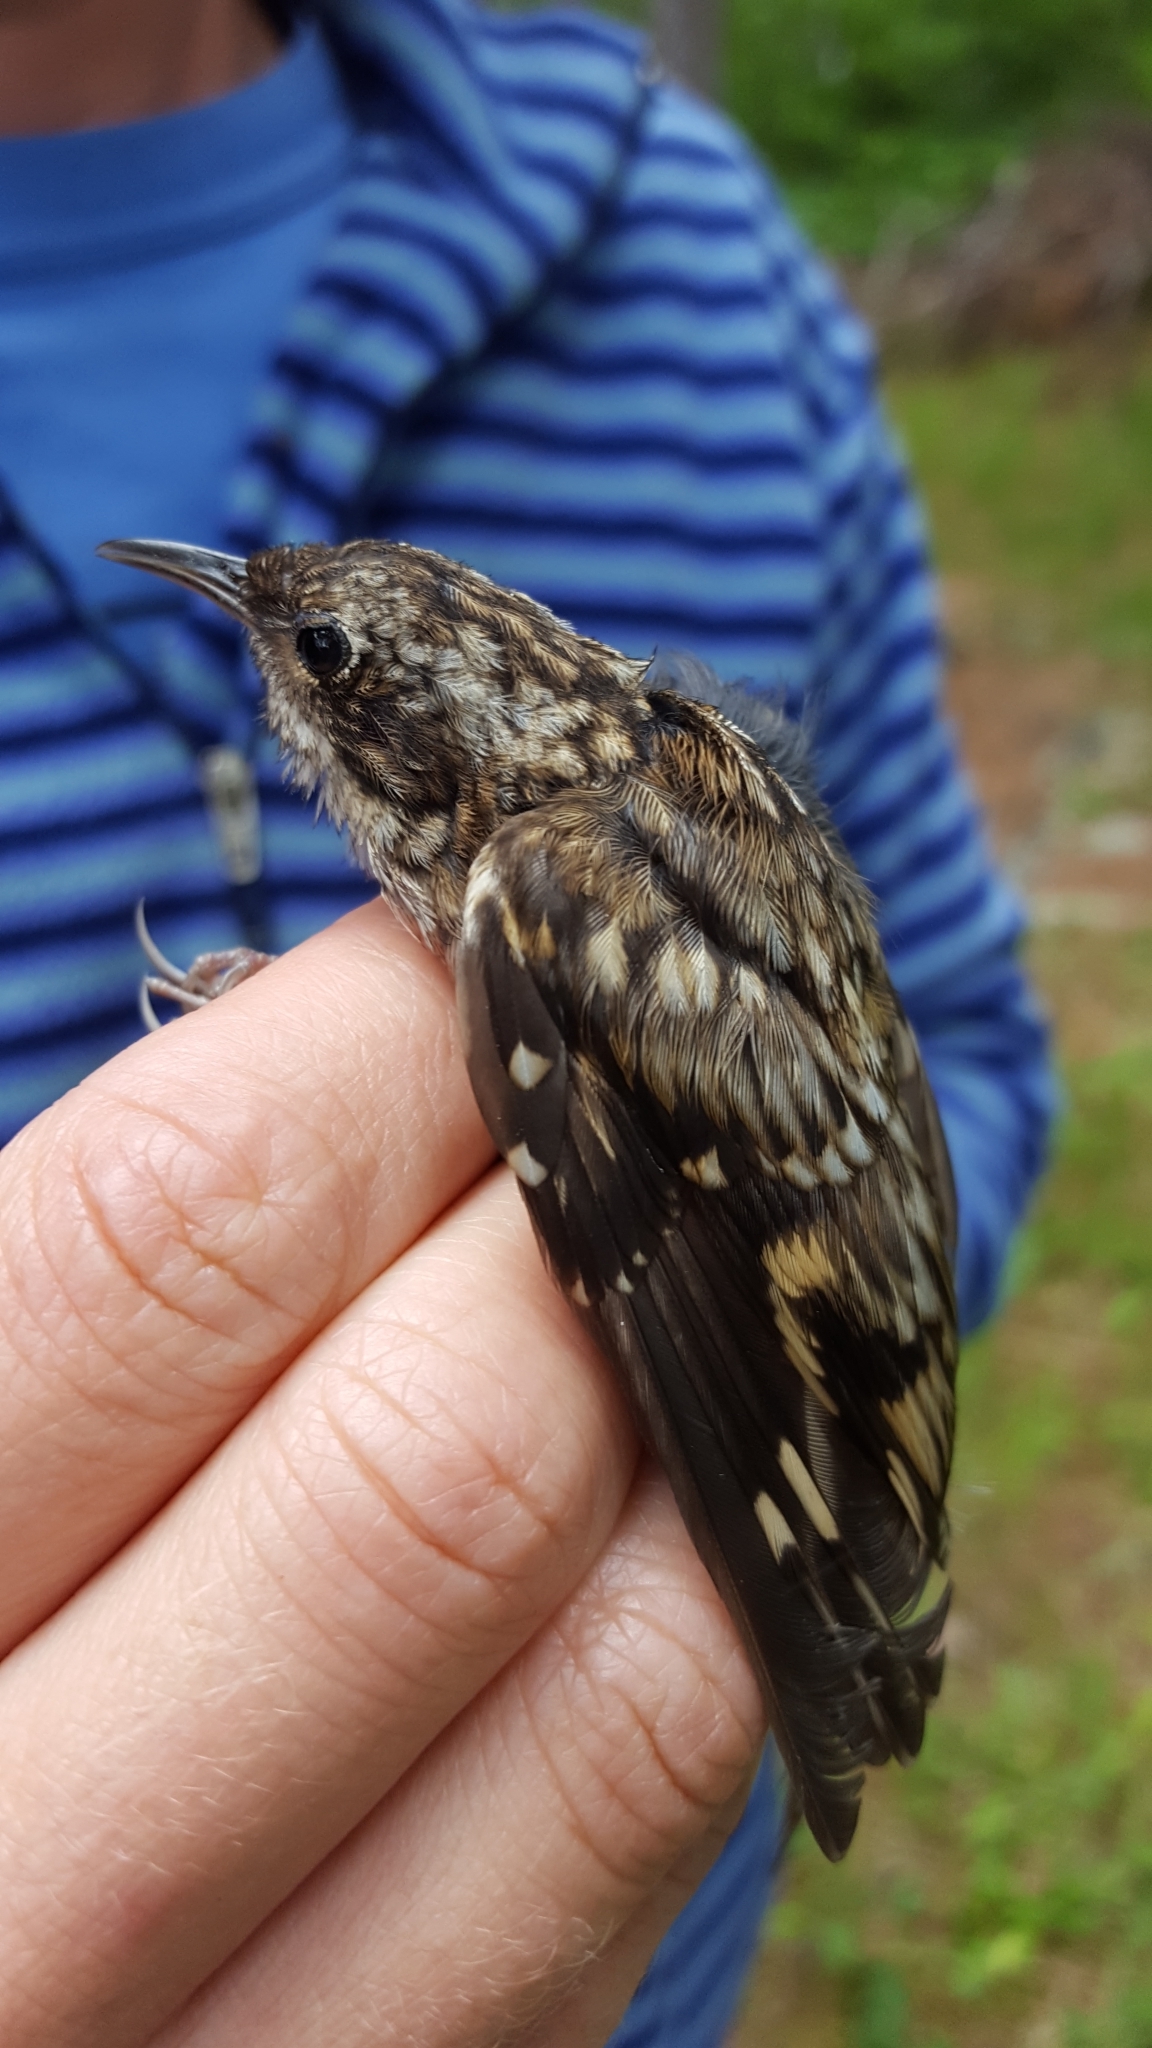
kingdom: Animalia
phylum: Chordata
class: Aves
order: Passeriformes
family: Certhiidae
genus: Certhia
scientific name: Certhia americana
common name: Brown creeper
